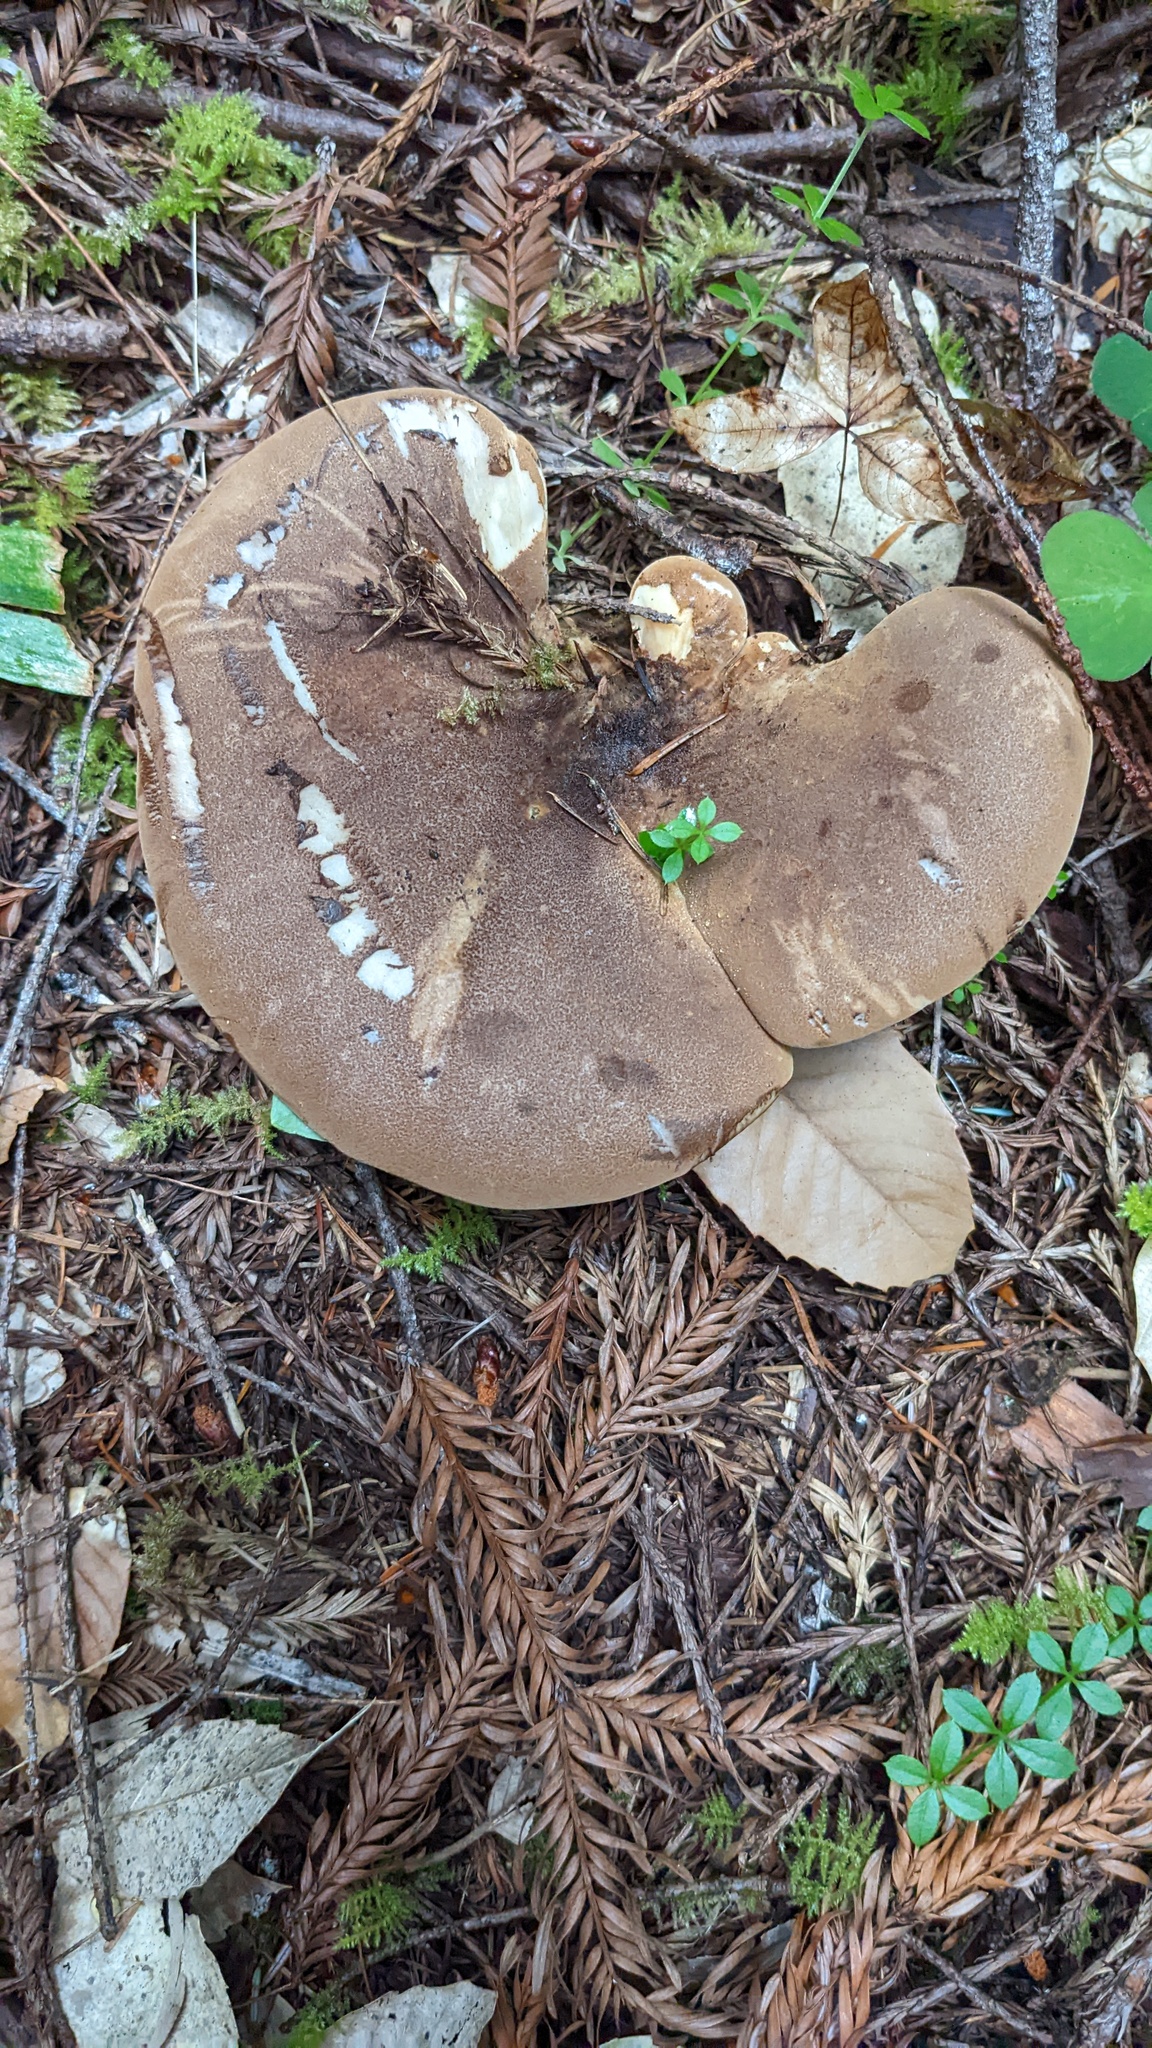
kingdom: Fungi
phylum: Basidiomycota
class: Agaricomycetes
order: Boletales
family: Tapinellaceae
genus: Tapinella
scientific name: Tapinella atrotomentosa
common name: Velvet rollrim
